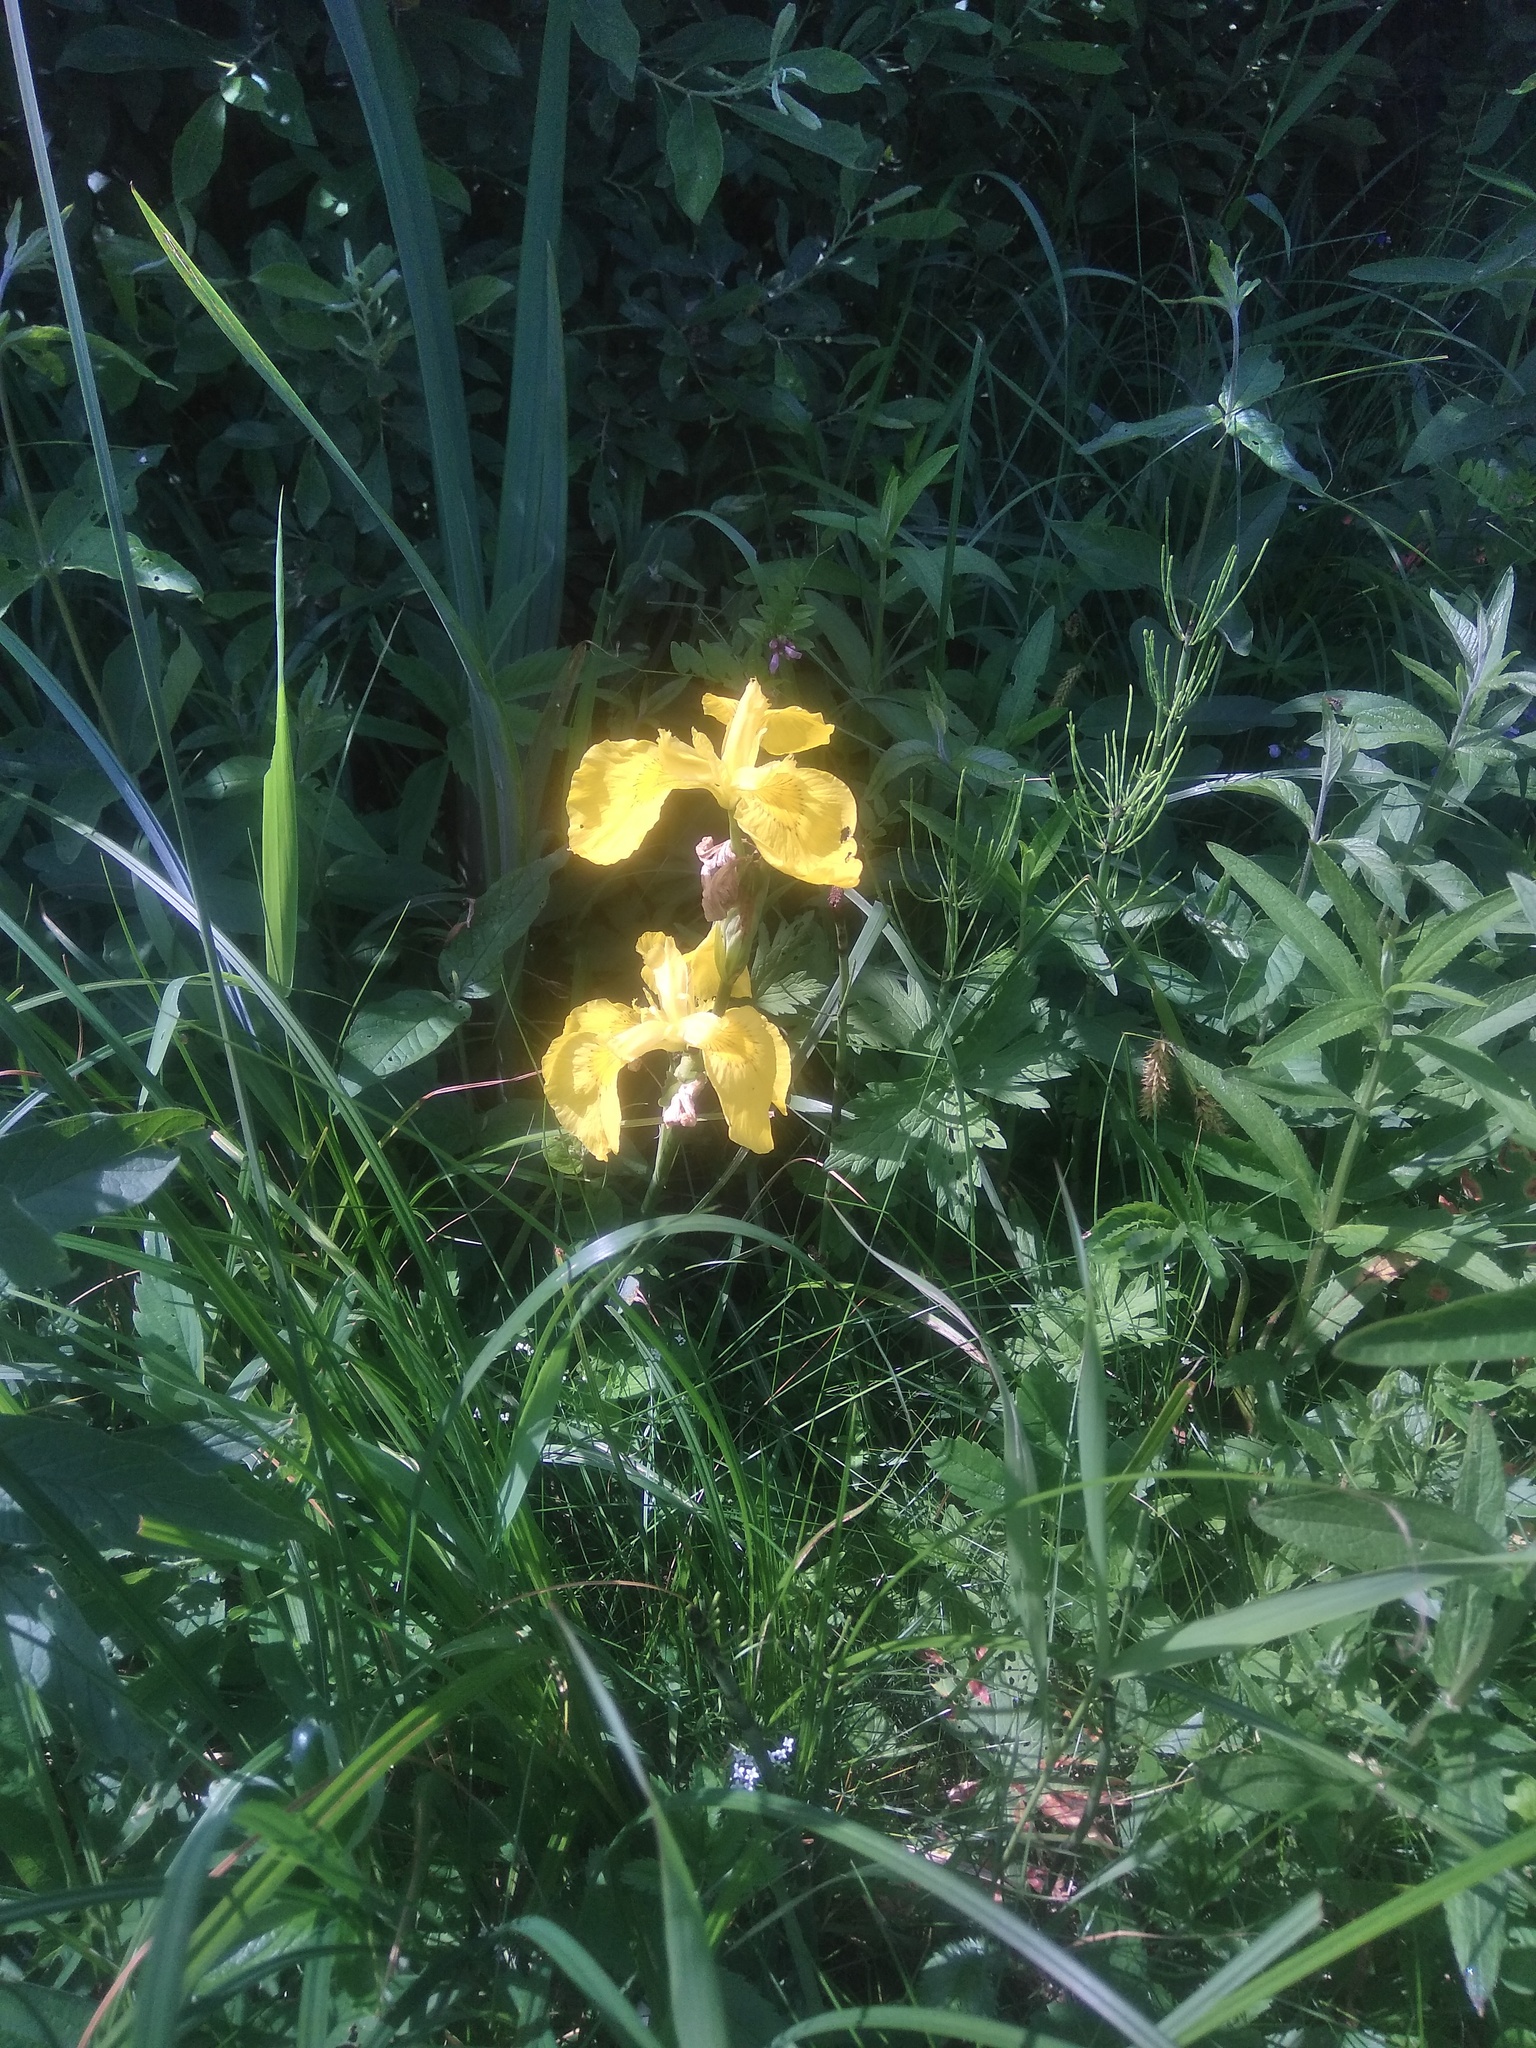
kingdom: Plantae
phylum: Tracheophyta
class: Liliopsida
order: Asparagales
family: Iridaceae
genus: Iris
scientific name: Iris pseudacorus
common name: Yellow flag
